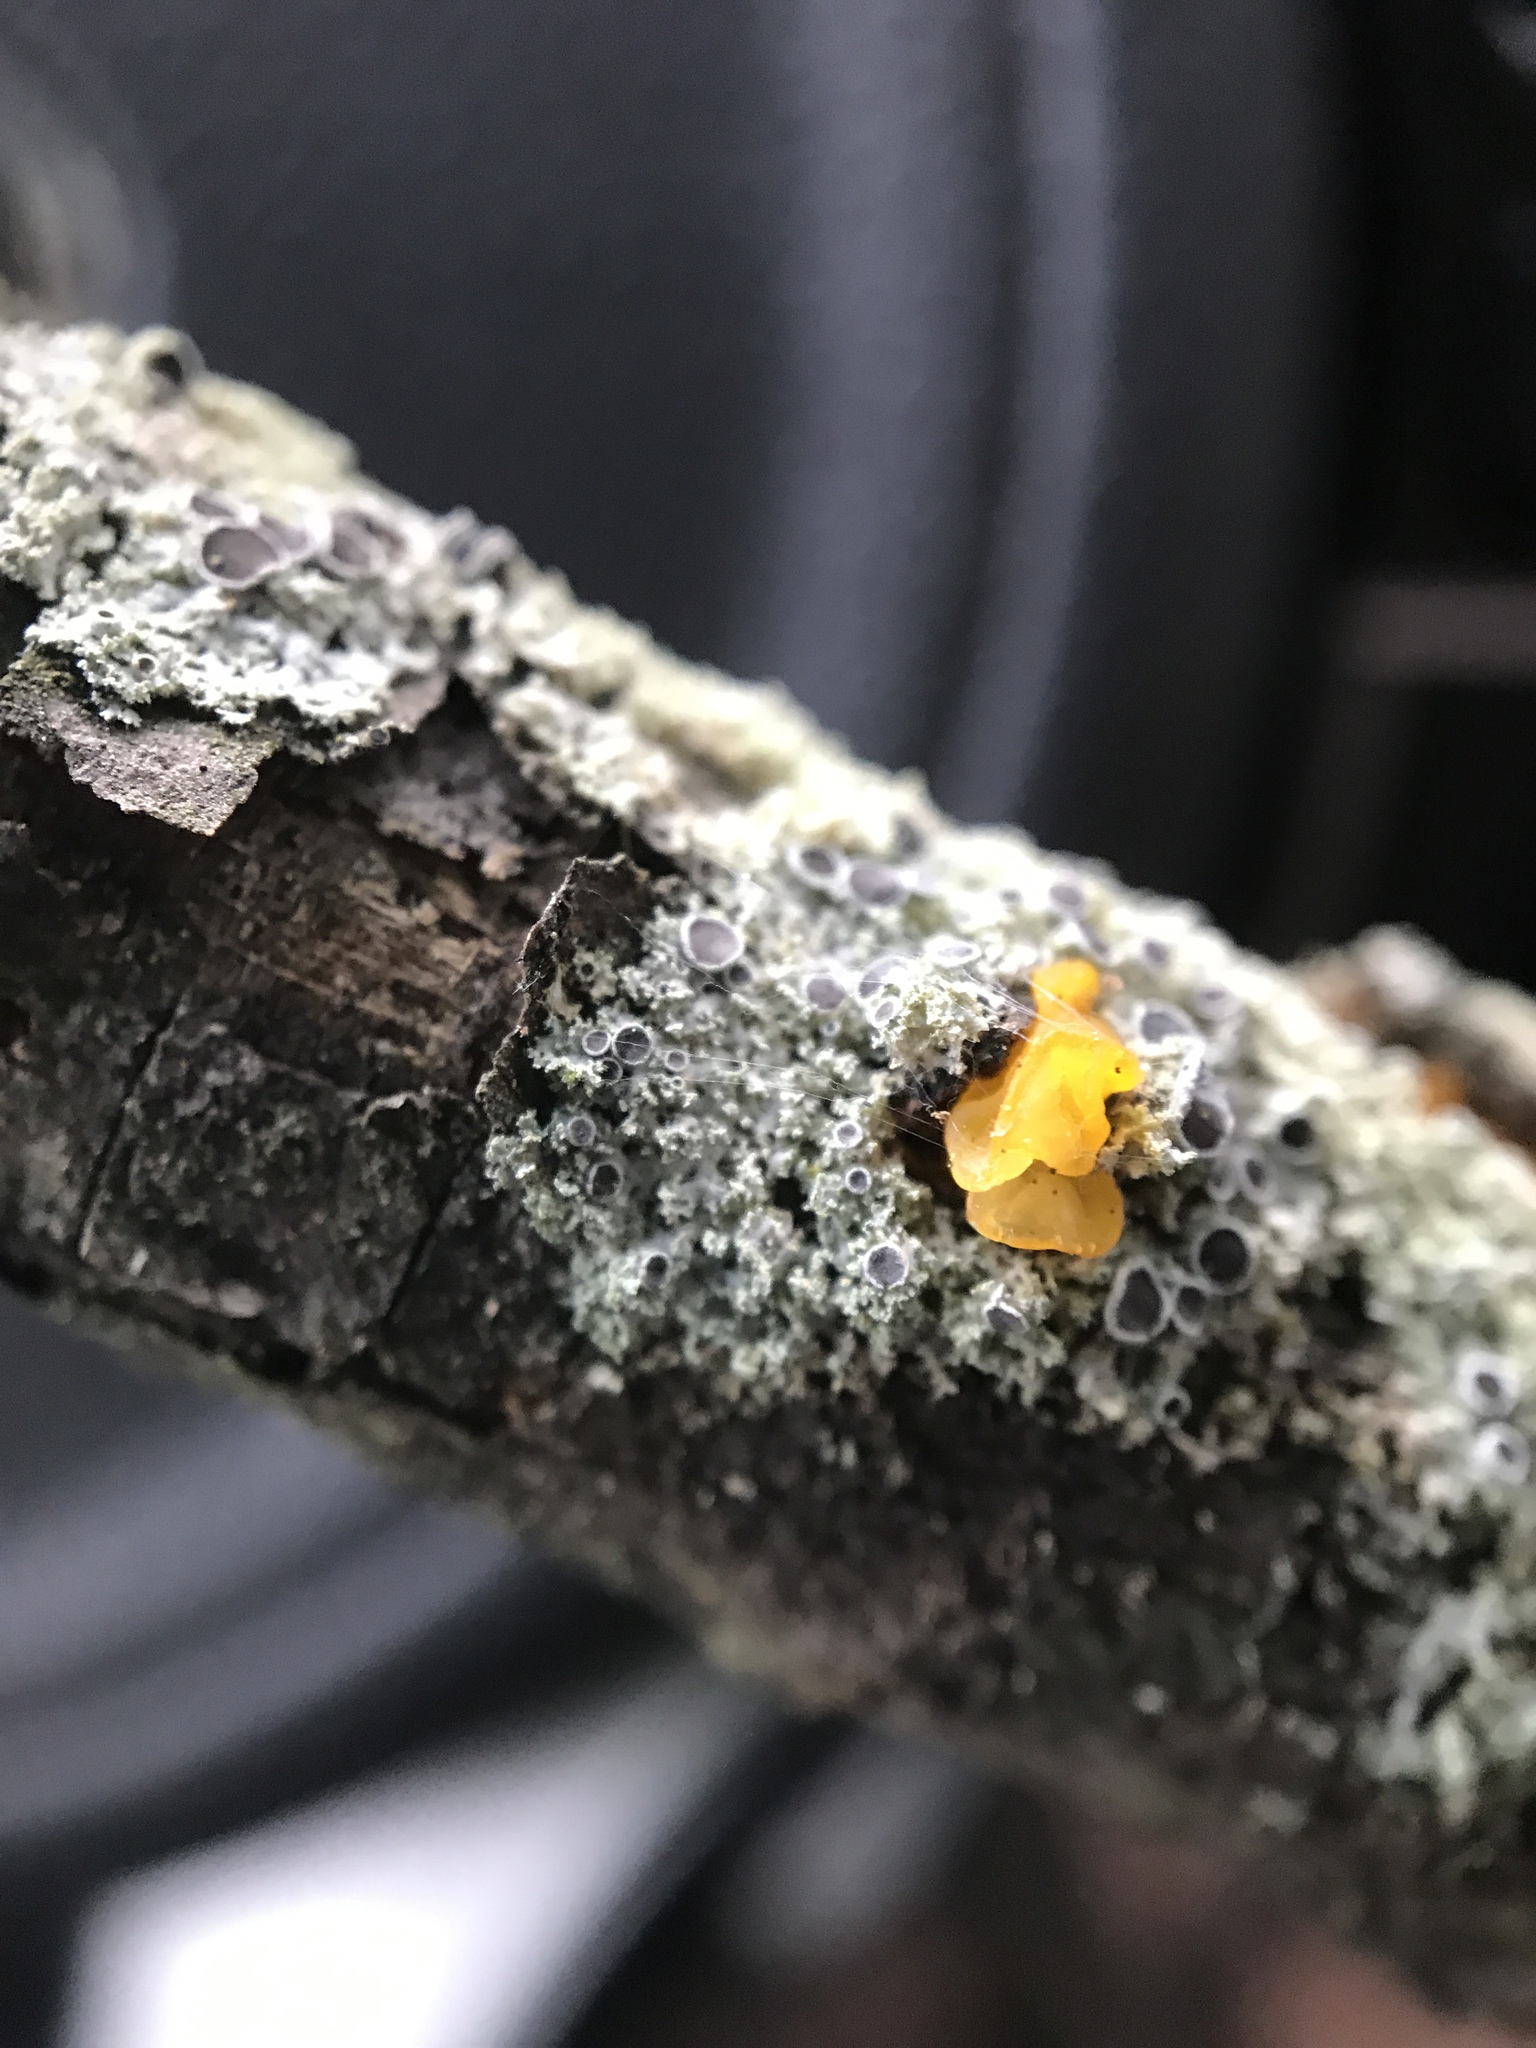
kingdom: Fungi
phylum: Basidiomycota
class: Tremellomycetes
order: Tremellales
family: Naemateliaceae
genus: Naematelia
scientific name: Naematelia aurantia
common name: Golden ear
